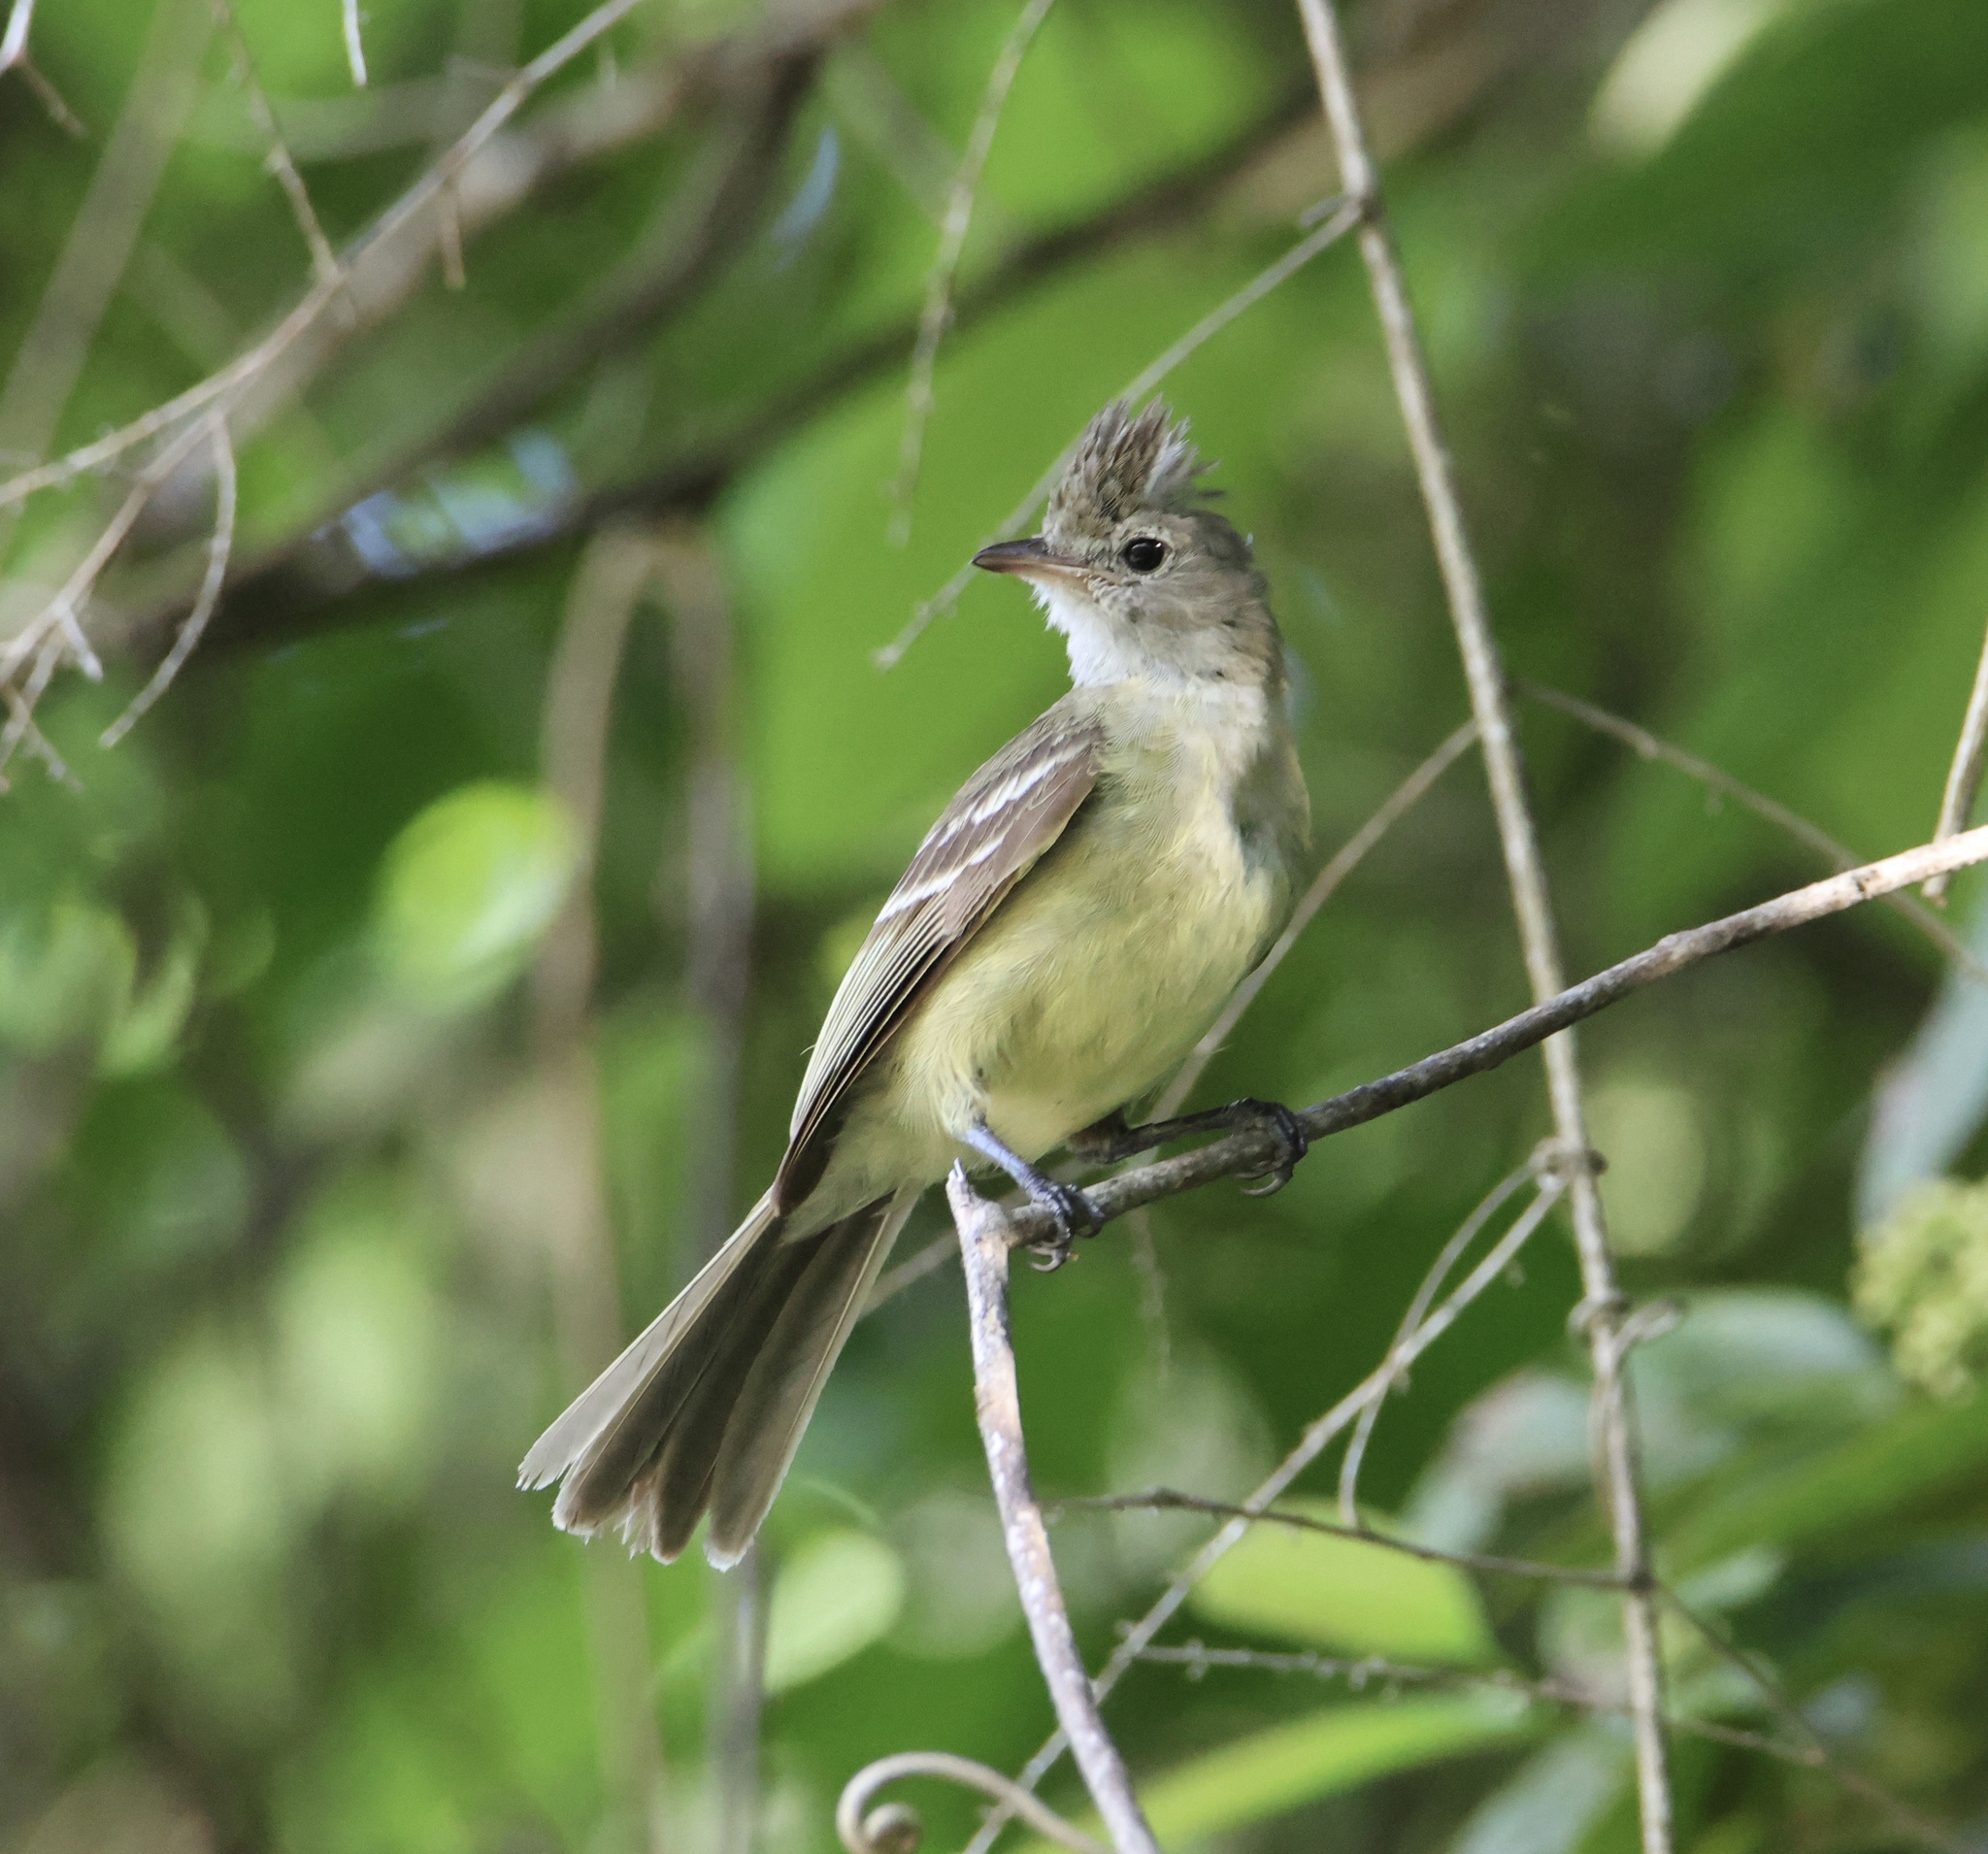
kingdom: Animalia
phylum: Chordata
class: Aves
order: Passeriformes
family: Tyrannidae
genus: Elaenia
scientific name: Elaenia flavogaster
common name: Yellow-bellied elaenia
